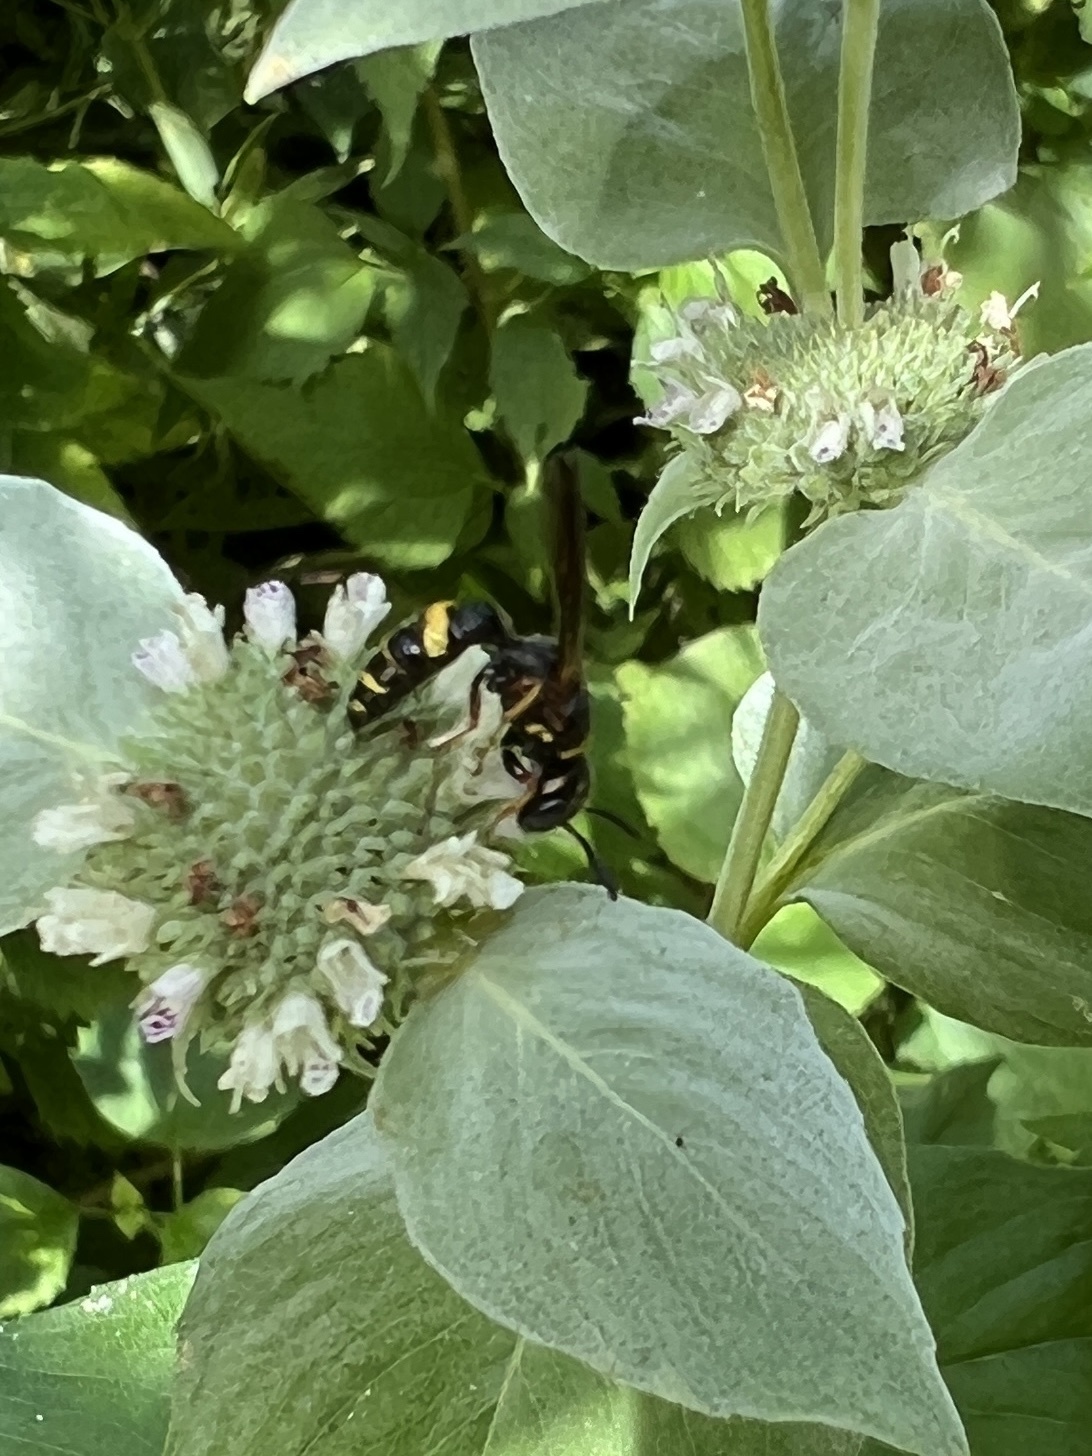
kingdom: Animalia
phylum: Arthropoda
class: Insecta
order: Hymenoptera
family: Crabronidae
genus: Philanthus
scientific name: Philanthus gibbosus
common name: Humped beewolf
